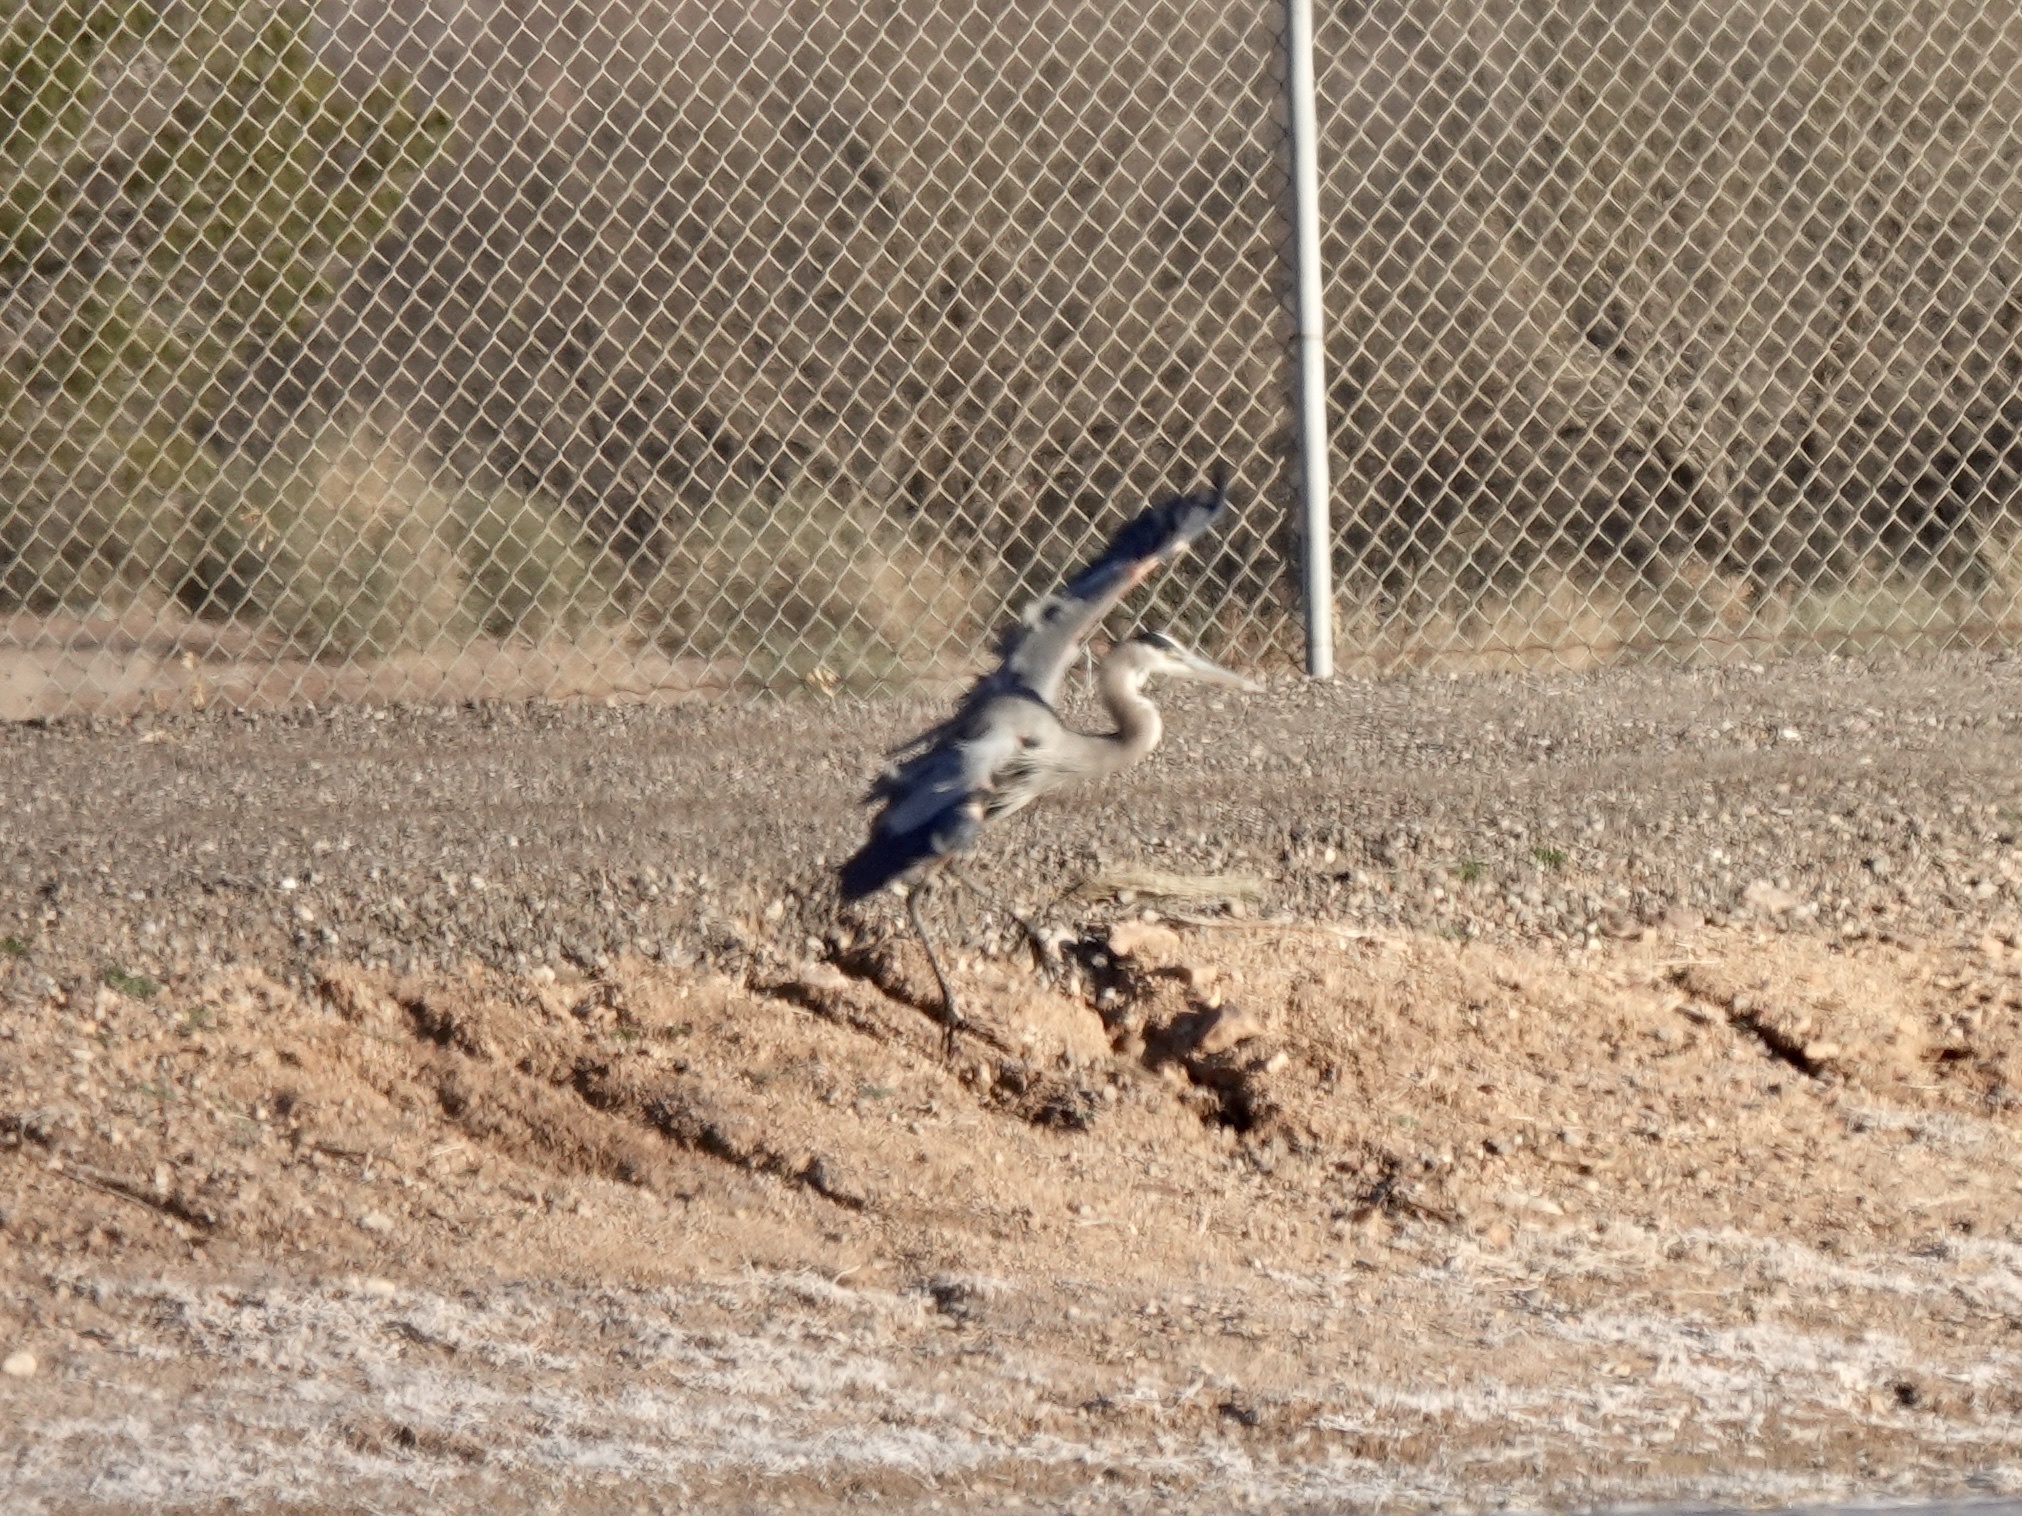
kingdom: Animalia
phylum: Chordata
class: Aves
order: Pelecaniformes
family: Ardeidae
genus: Ardea
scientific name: Ardea herodias
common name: Great blue heron
